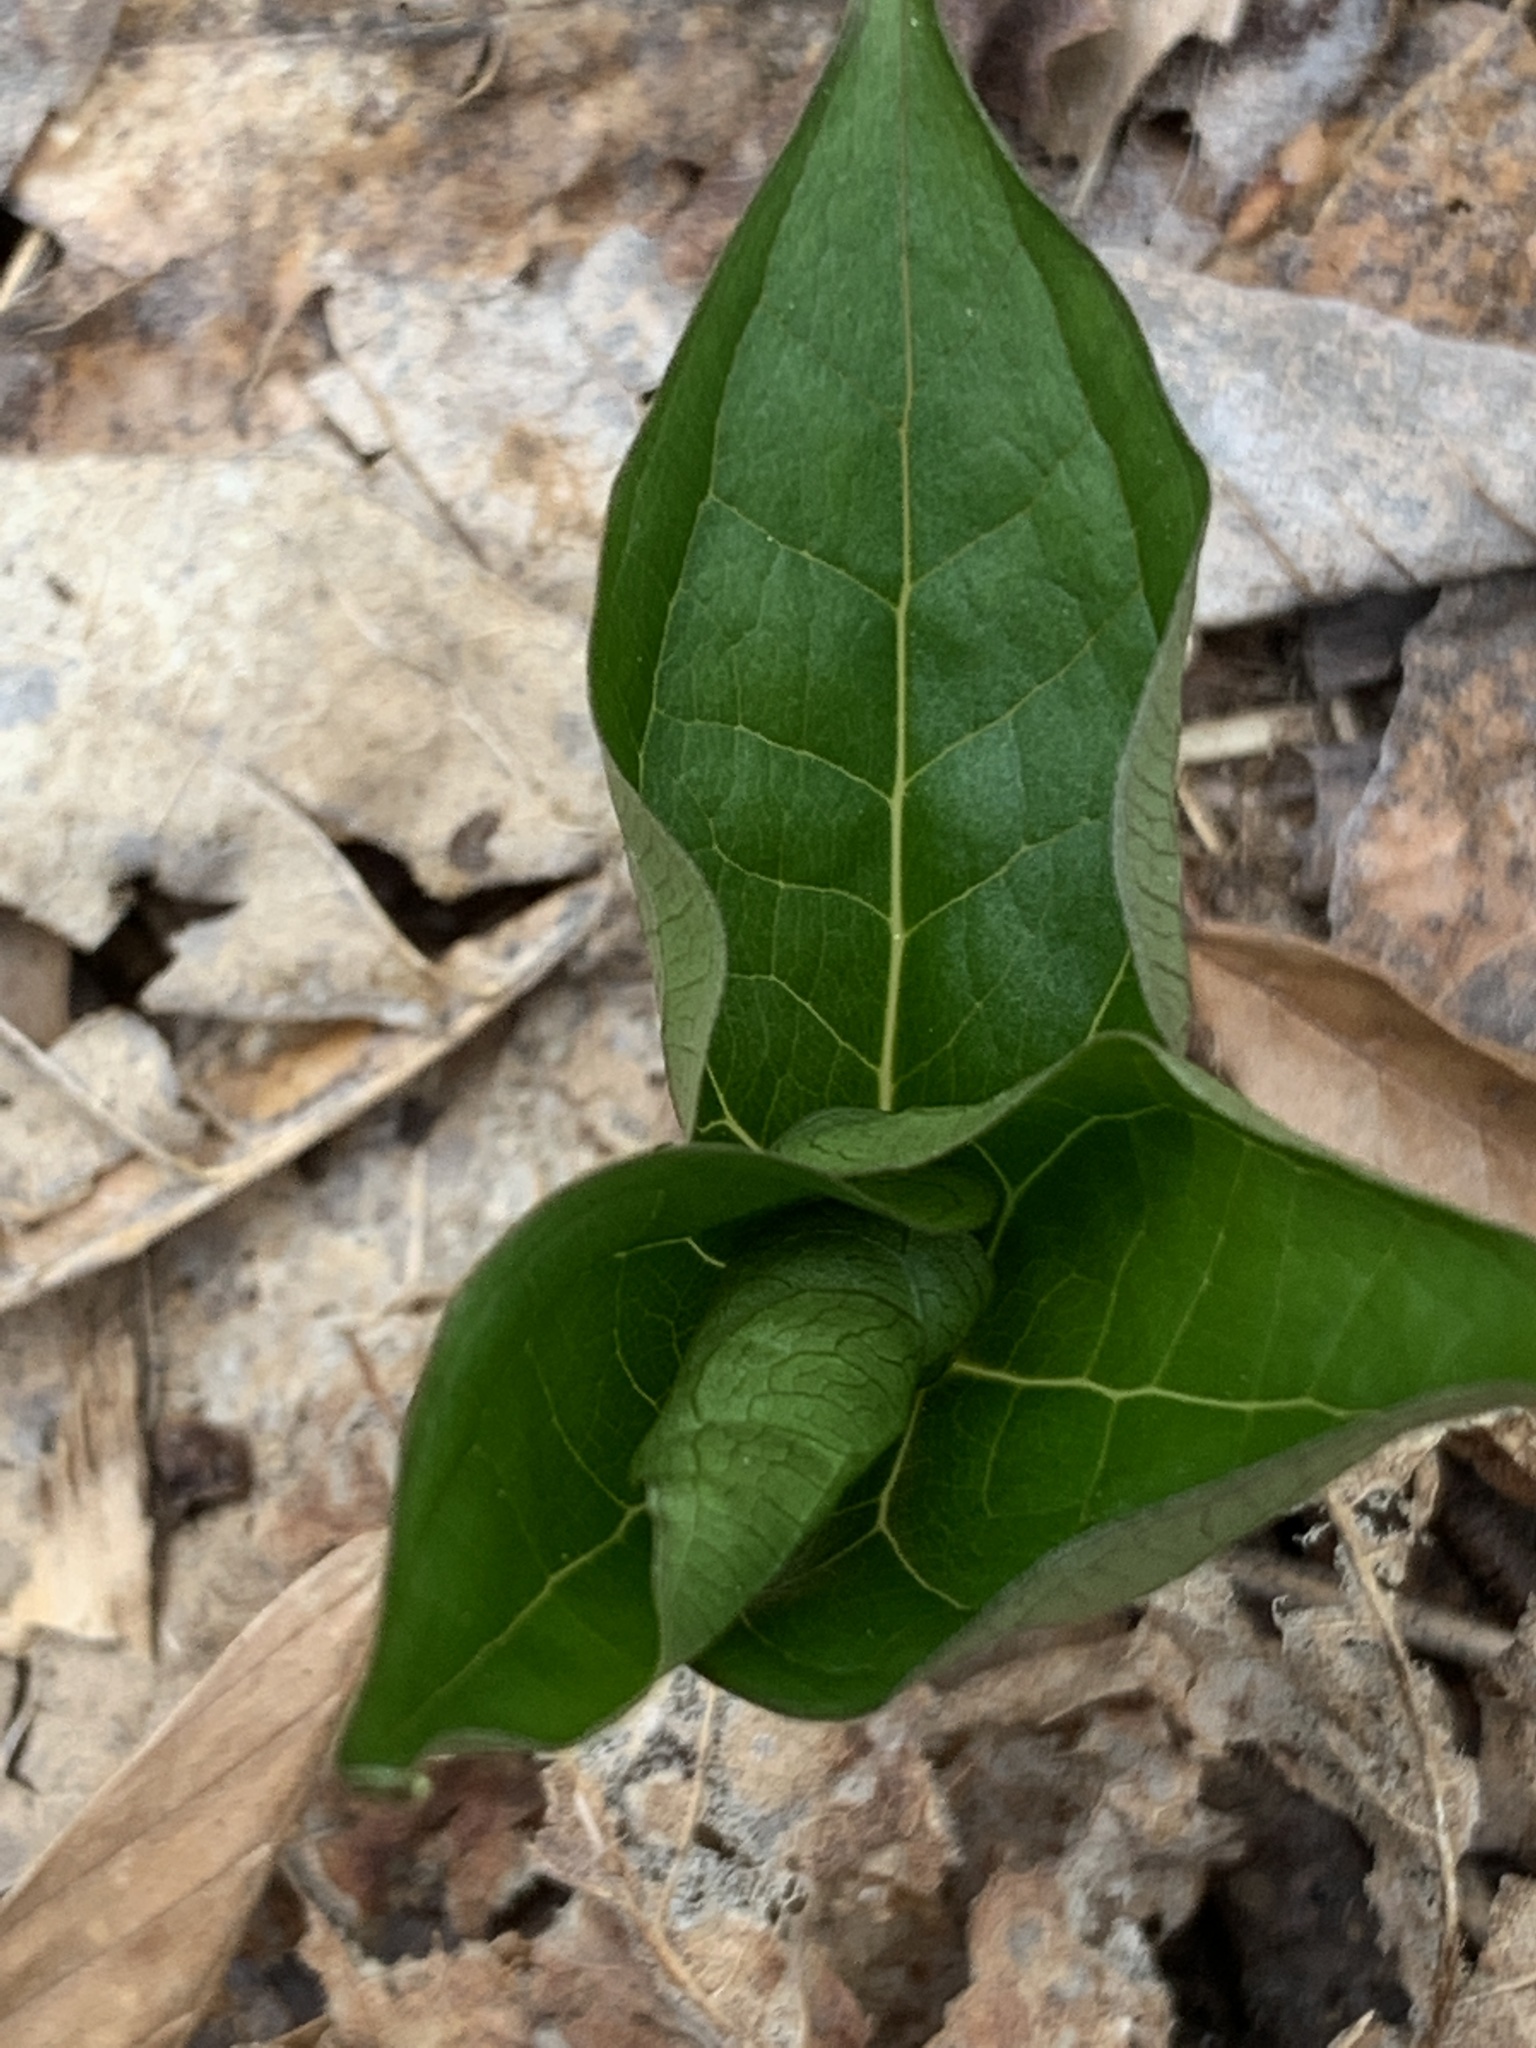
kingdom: Plantae
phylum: Tracheophyta
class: Liliopsida
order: Liliales
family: Melanthiaceae
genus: Trillium
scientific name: Trillium erectum
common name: Purple trillium
